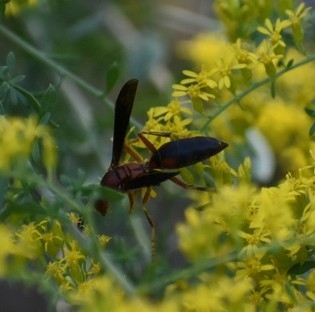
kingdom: Animalia
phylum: Arthropoda
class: Insecta
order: Hymenoptera
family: Eumenidae
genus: Polistes
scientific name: Polistes metricus
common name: Metric paper wasp
